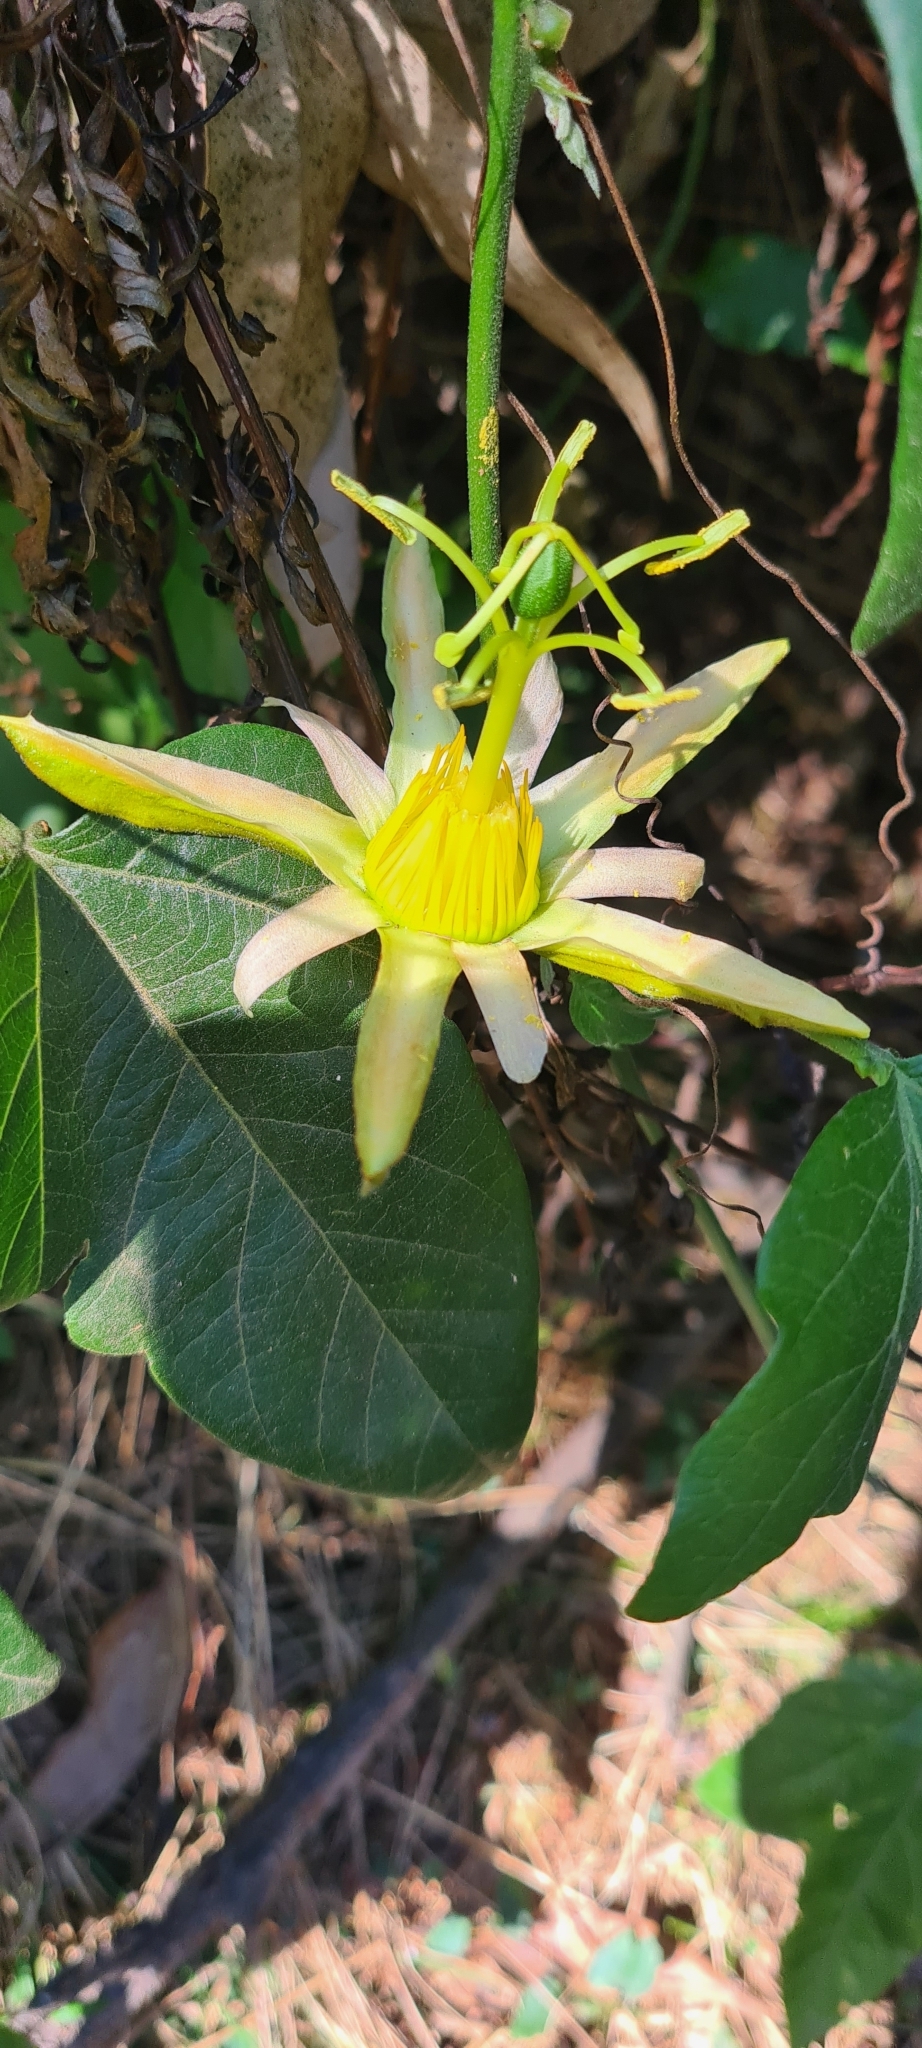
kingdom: Plantae
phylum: Tracheophyta
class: Magnoliopsida
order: Malpighiales
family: Passifloraceae
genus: Passiflora
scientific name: Passiflora herbertiana
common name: Yellow passionflower
